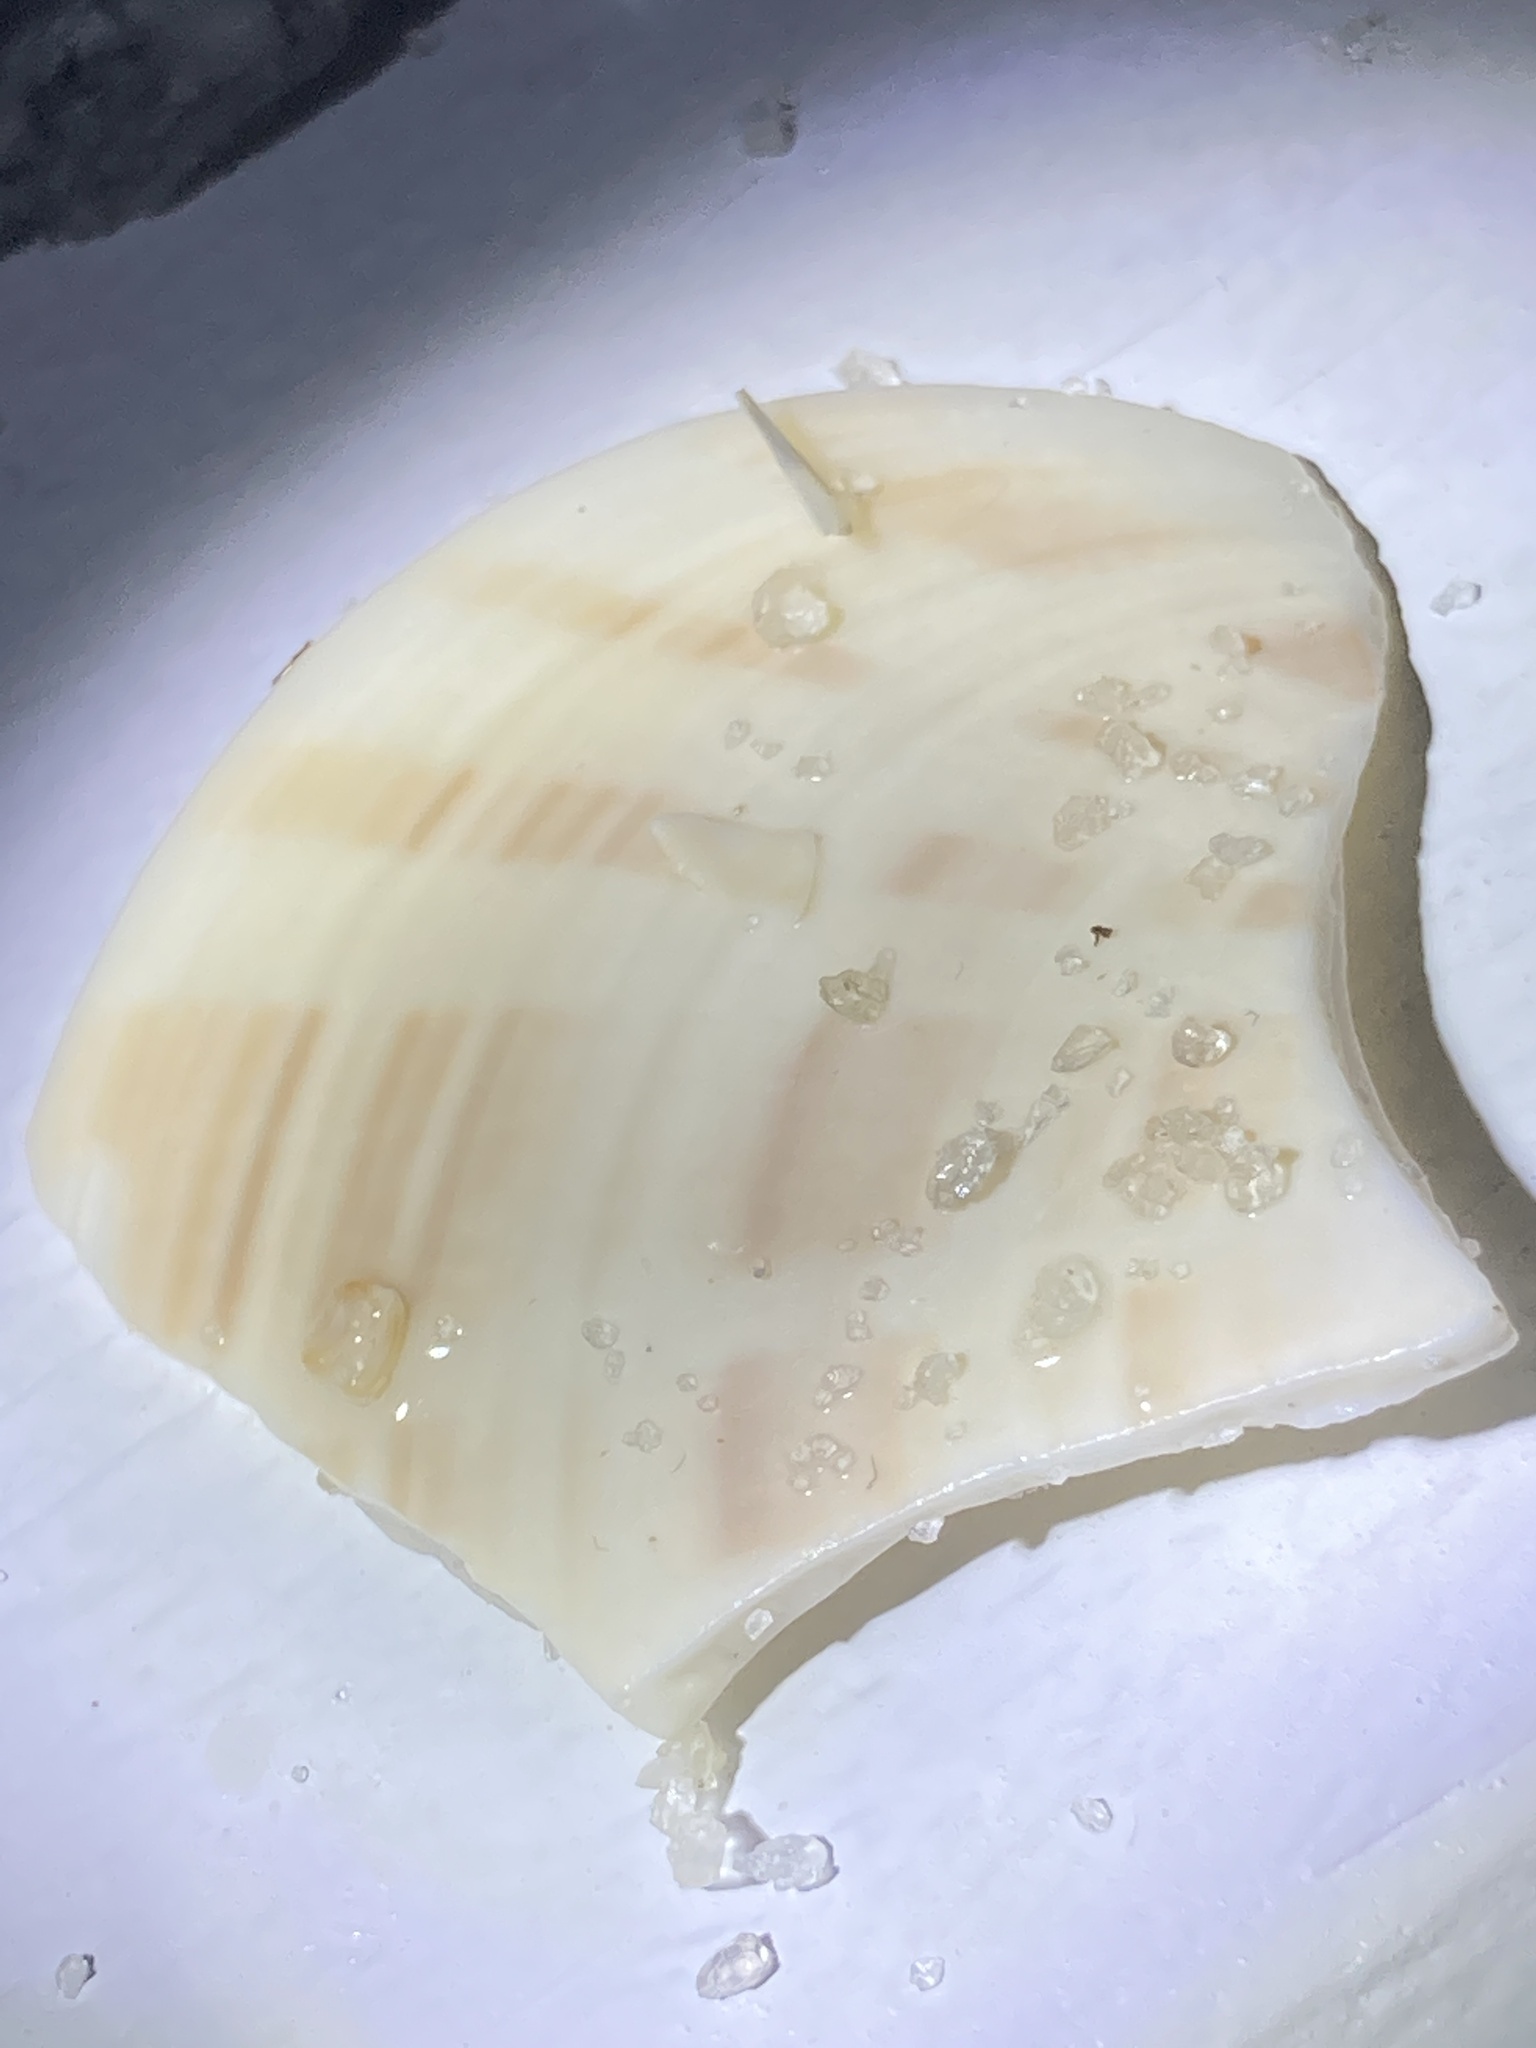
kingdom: Animalia
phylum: Mollusca
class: Bivalvia
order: Venerida
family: Veneridae
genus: Macrocallista
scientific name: Macrocallista nimbosa
